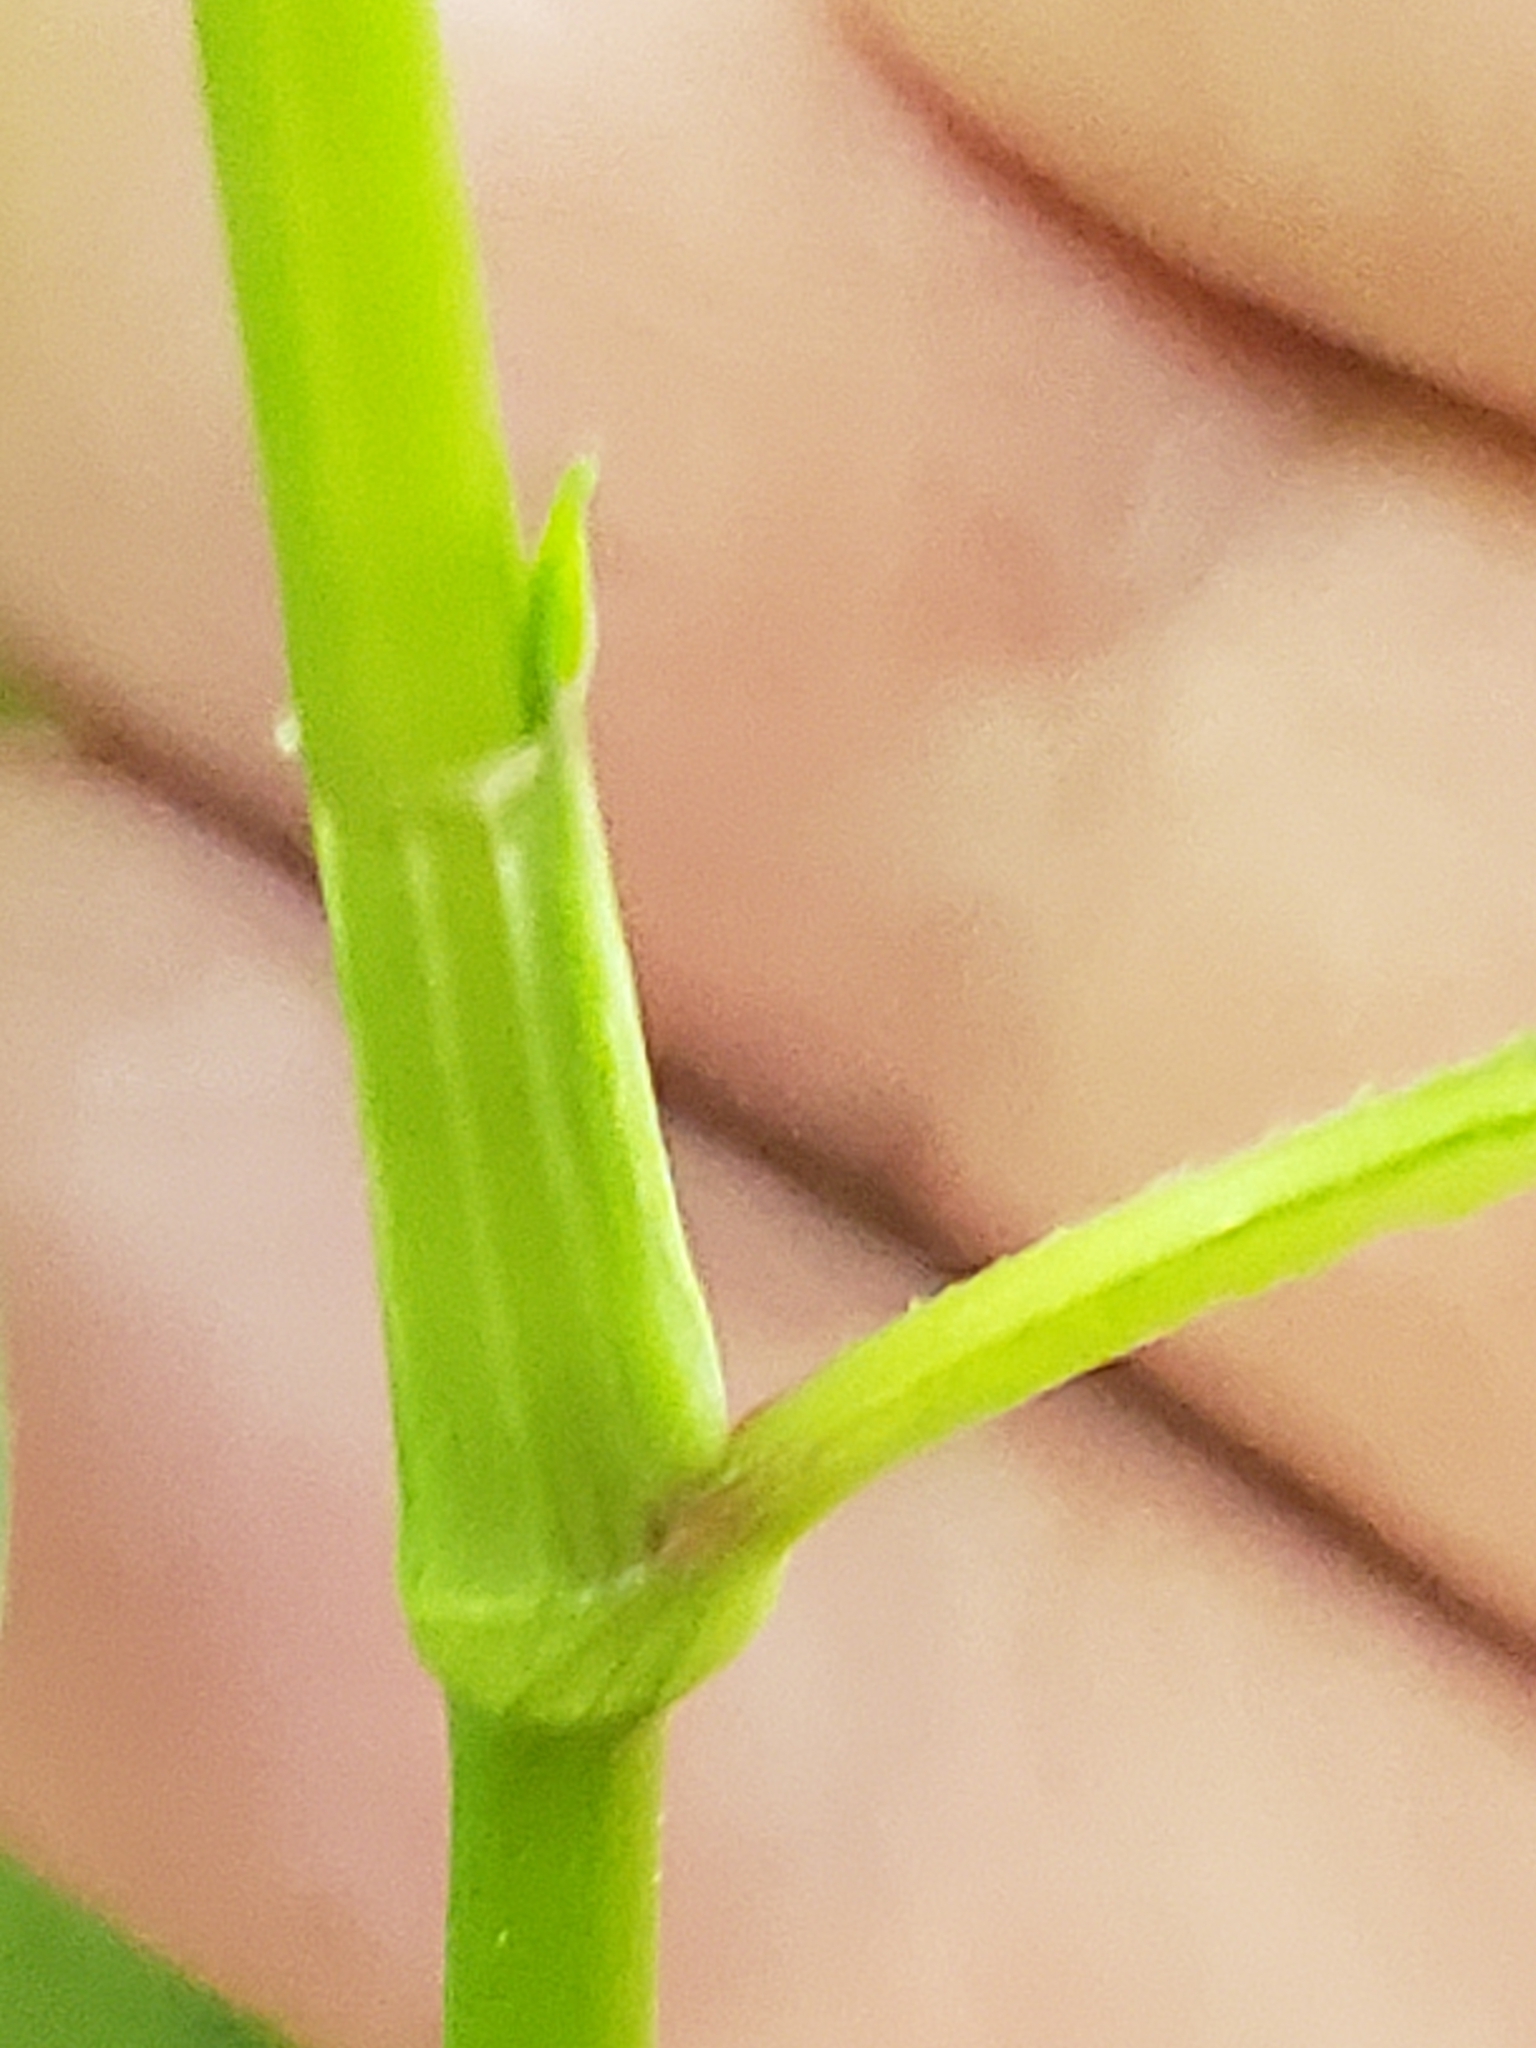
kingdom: Plantae
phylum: Tracheophyta
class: Magnoliopsida
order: Caryophyllales
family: Polygonaceae
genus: Persicaria
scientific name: Persicaria lapathifolia
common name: Curlytop knotweed
